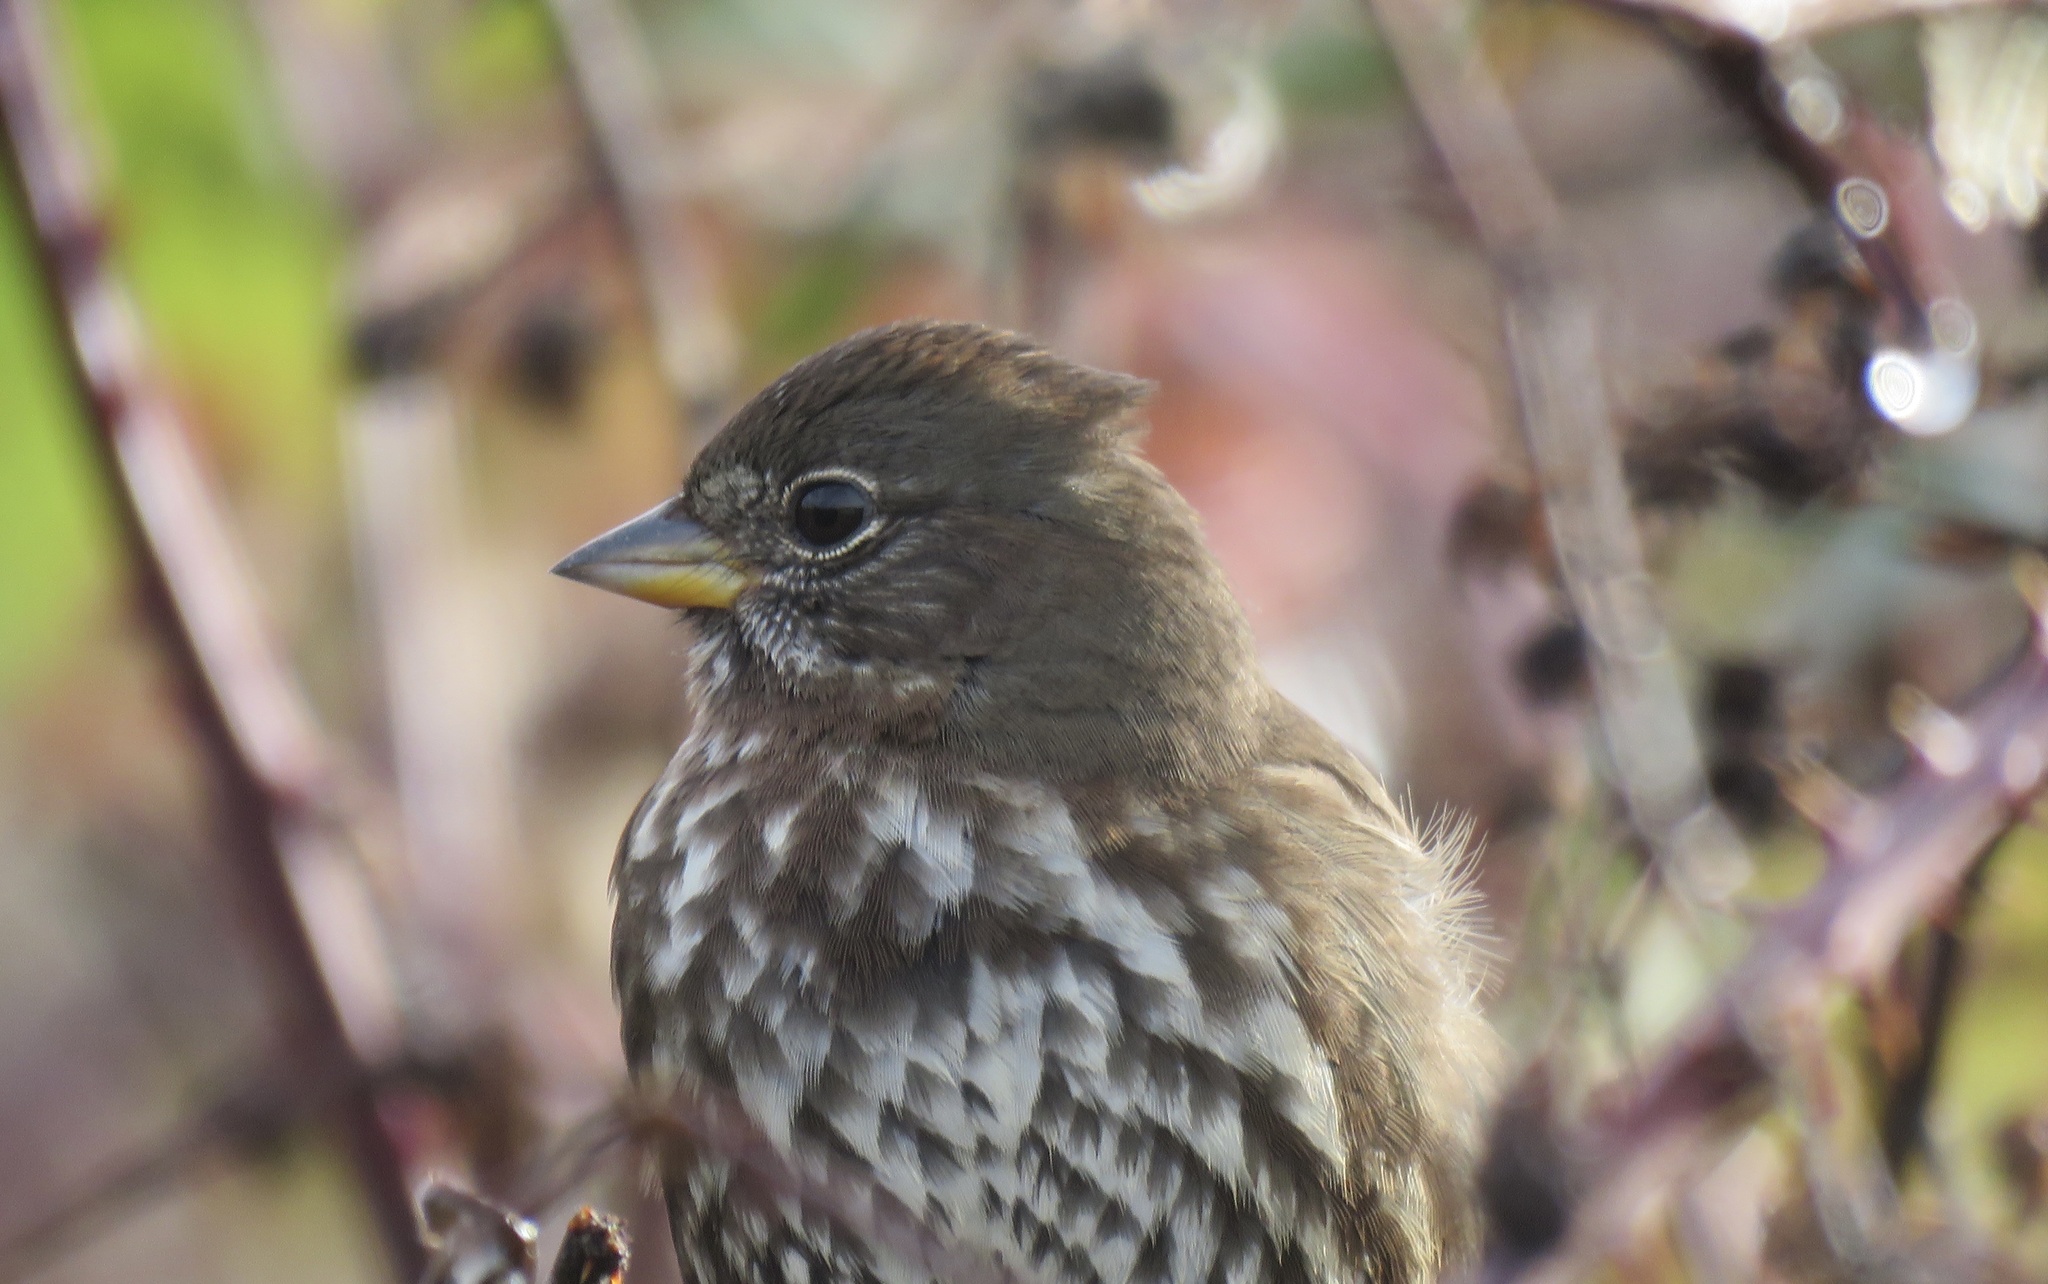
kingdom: Animalia
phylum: Chordata
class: Aves
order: Passeriformes
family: Passerellidae
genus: Passerella
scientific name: Passerella iliaca
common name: Fox sparrow
